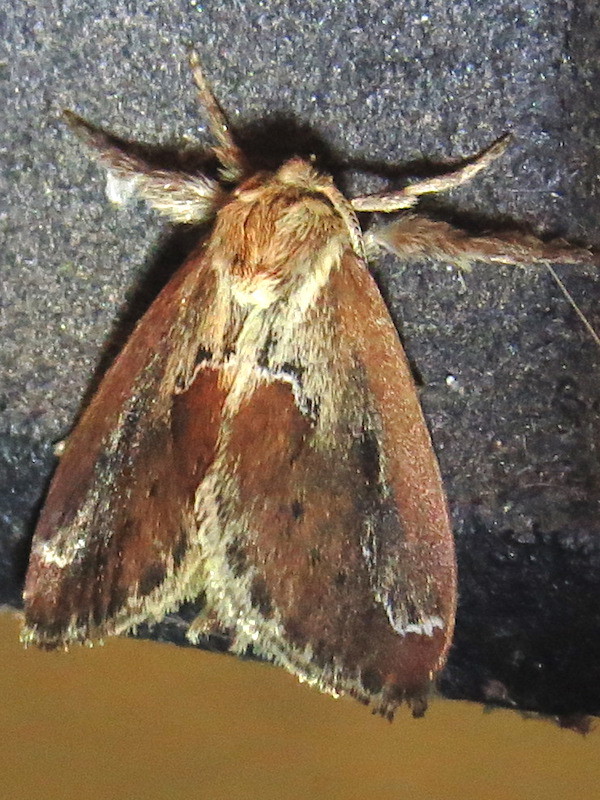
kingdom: Animalia
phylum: Arthropoda
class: Insecta
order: Lepidoptera
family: Limacodidae
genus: Adoneta
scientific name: Adoneta spinuloides
